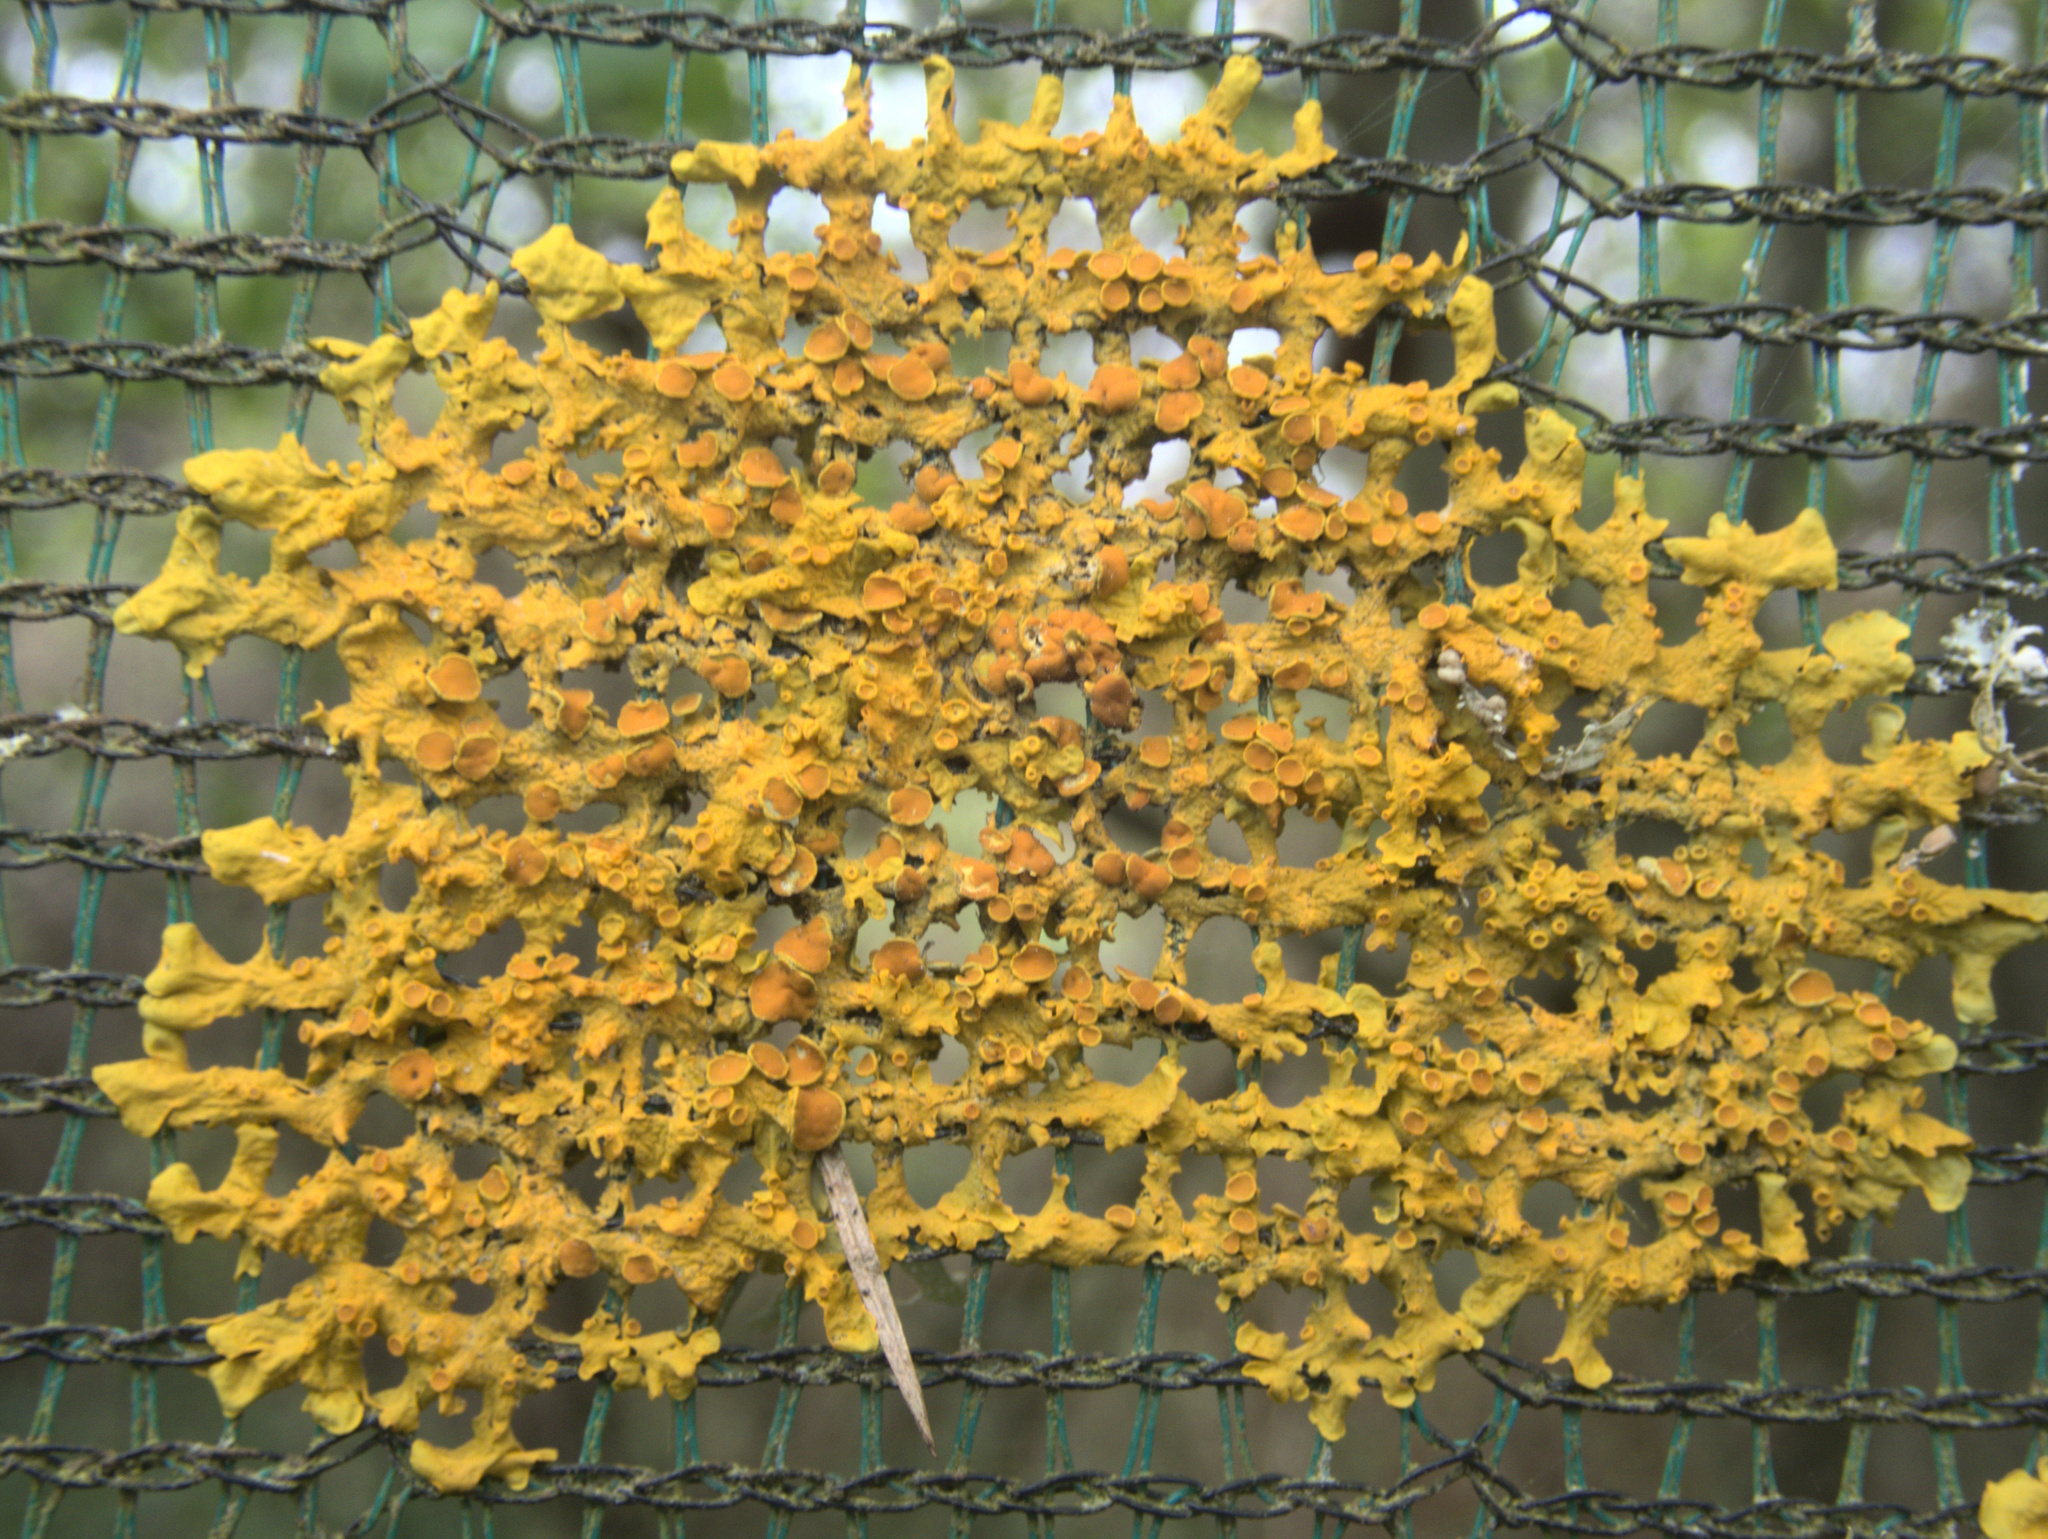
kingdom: Fungi
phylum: Ascomycota
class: Lecanoromycetes
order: Teloschistales
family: Teloschistaceae
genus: Xanthoria
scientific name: Xanthoria parietina
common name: Common orange lichen
